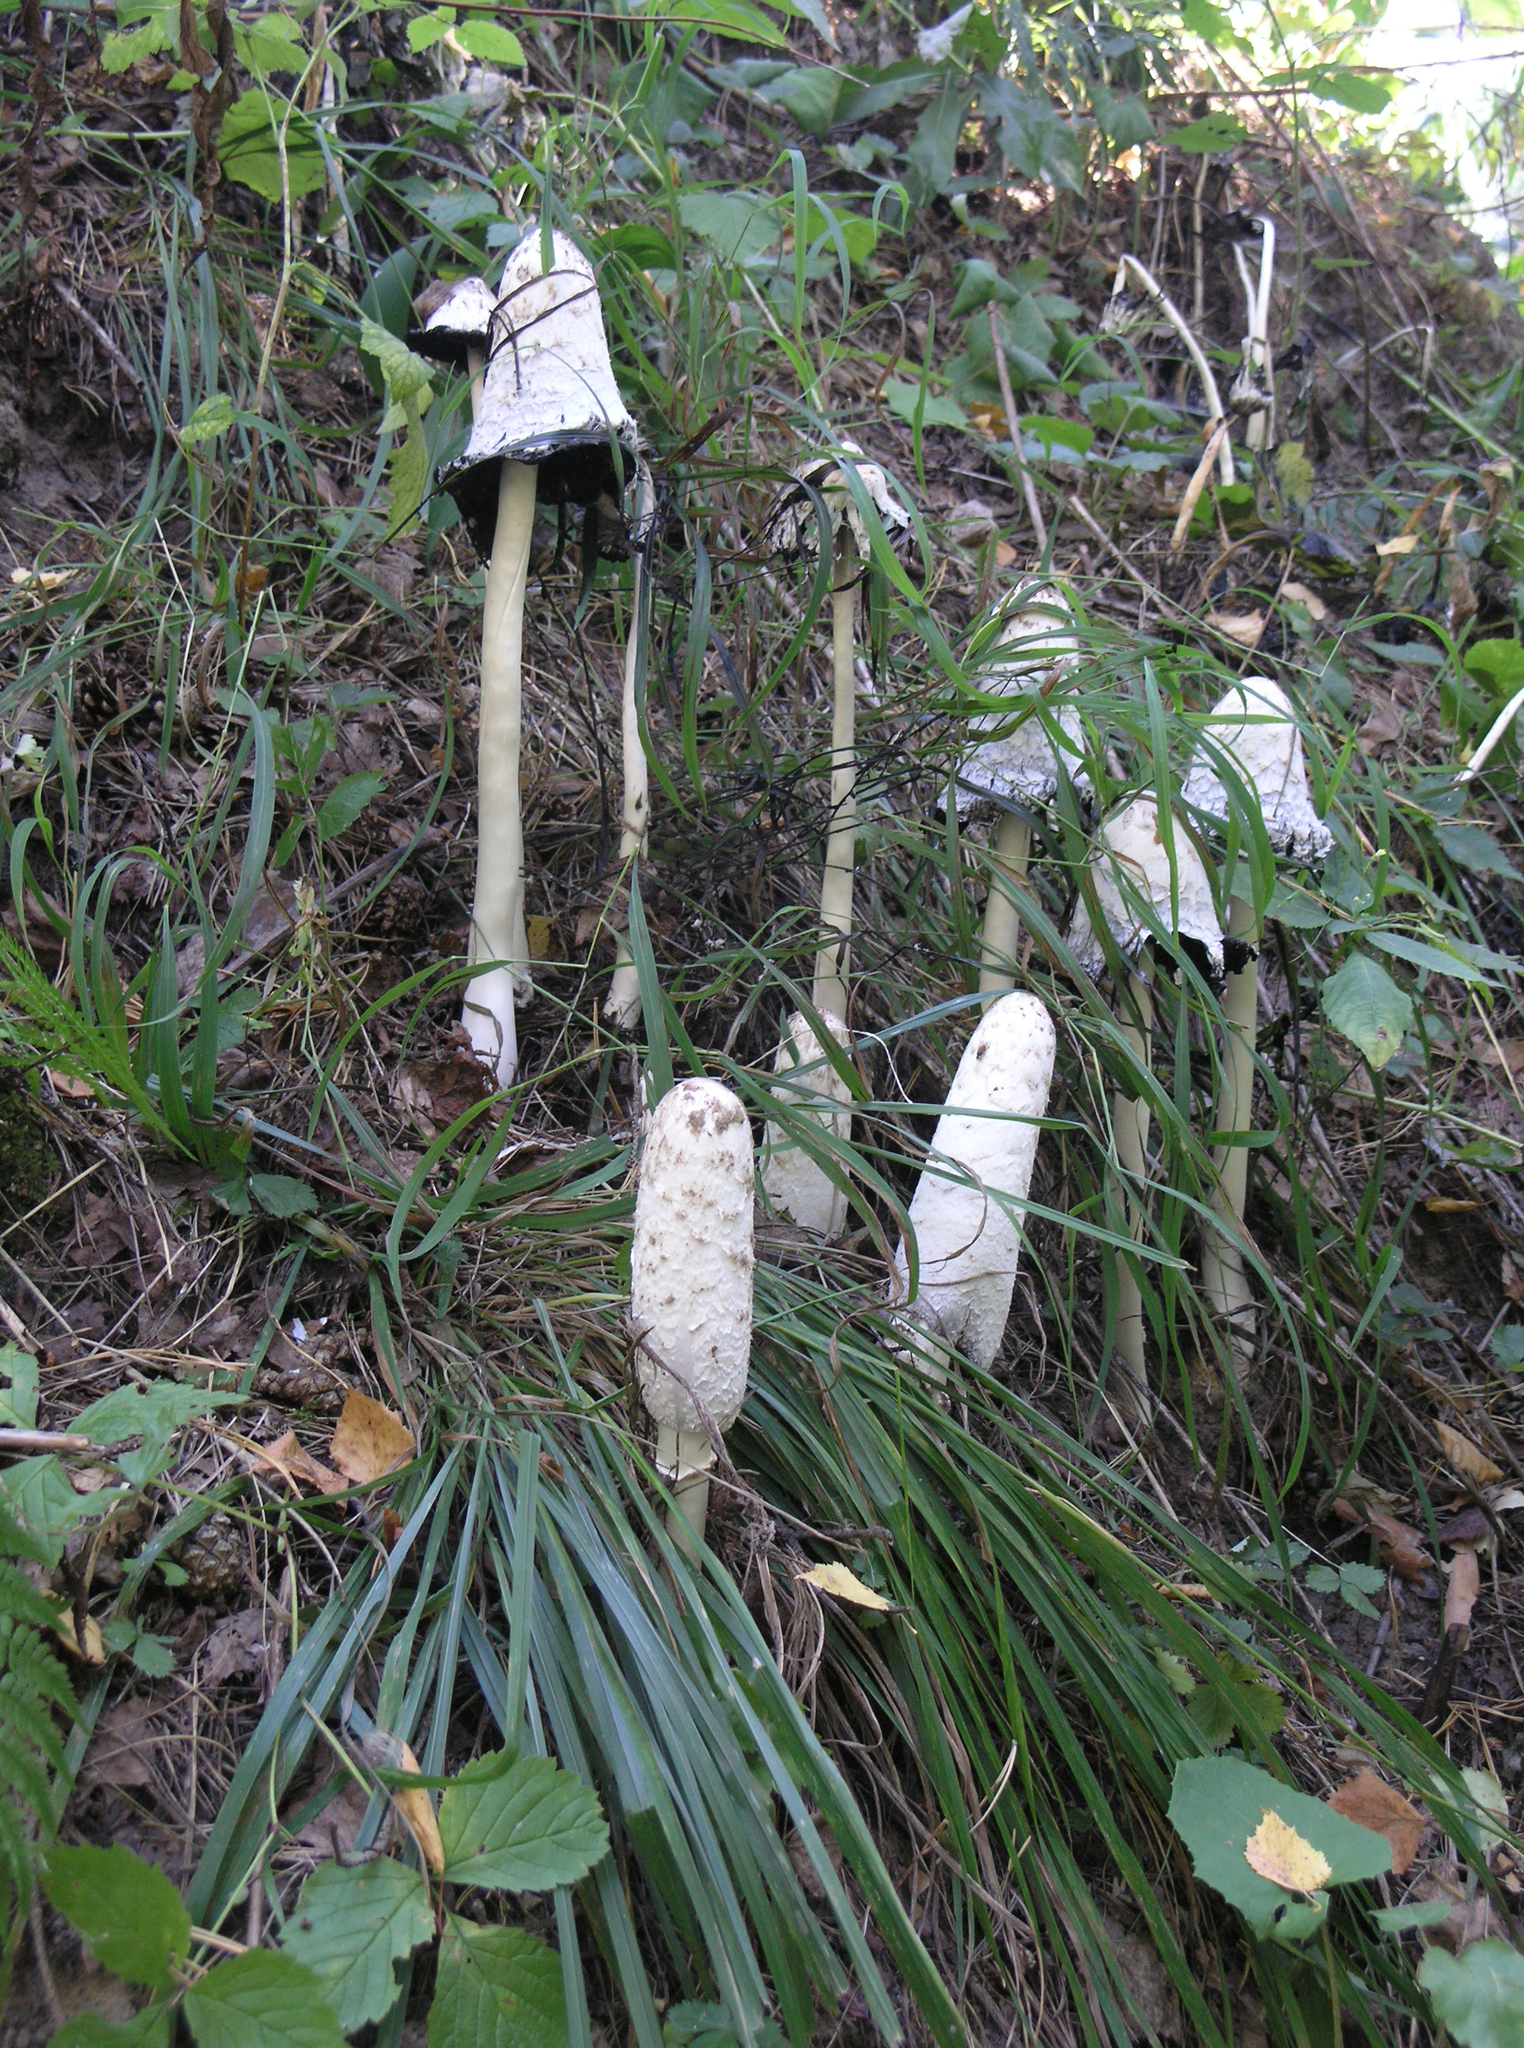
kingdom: Fungi
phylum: Basidiomycota
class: Agaricomycetes
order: Agaricales
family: Agaricaceae
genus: Coprinus
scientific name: Coprinus comatus
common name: Lawyer's wig
